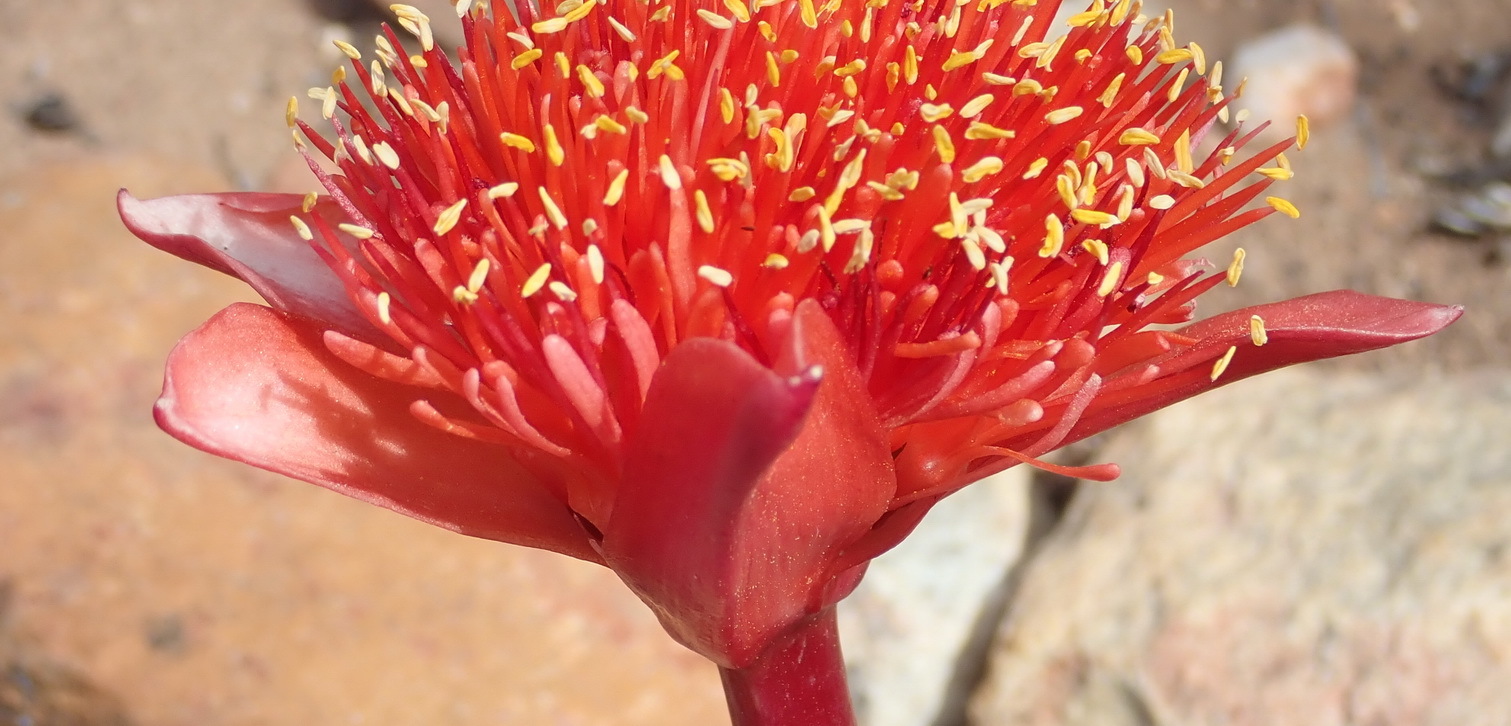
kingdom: Plantae
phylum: Tracheophyta
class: Liliopsida
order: Asparagales
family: Amaryllidaceae
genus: Haemanthus
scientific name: Haemanthus sanguineus
